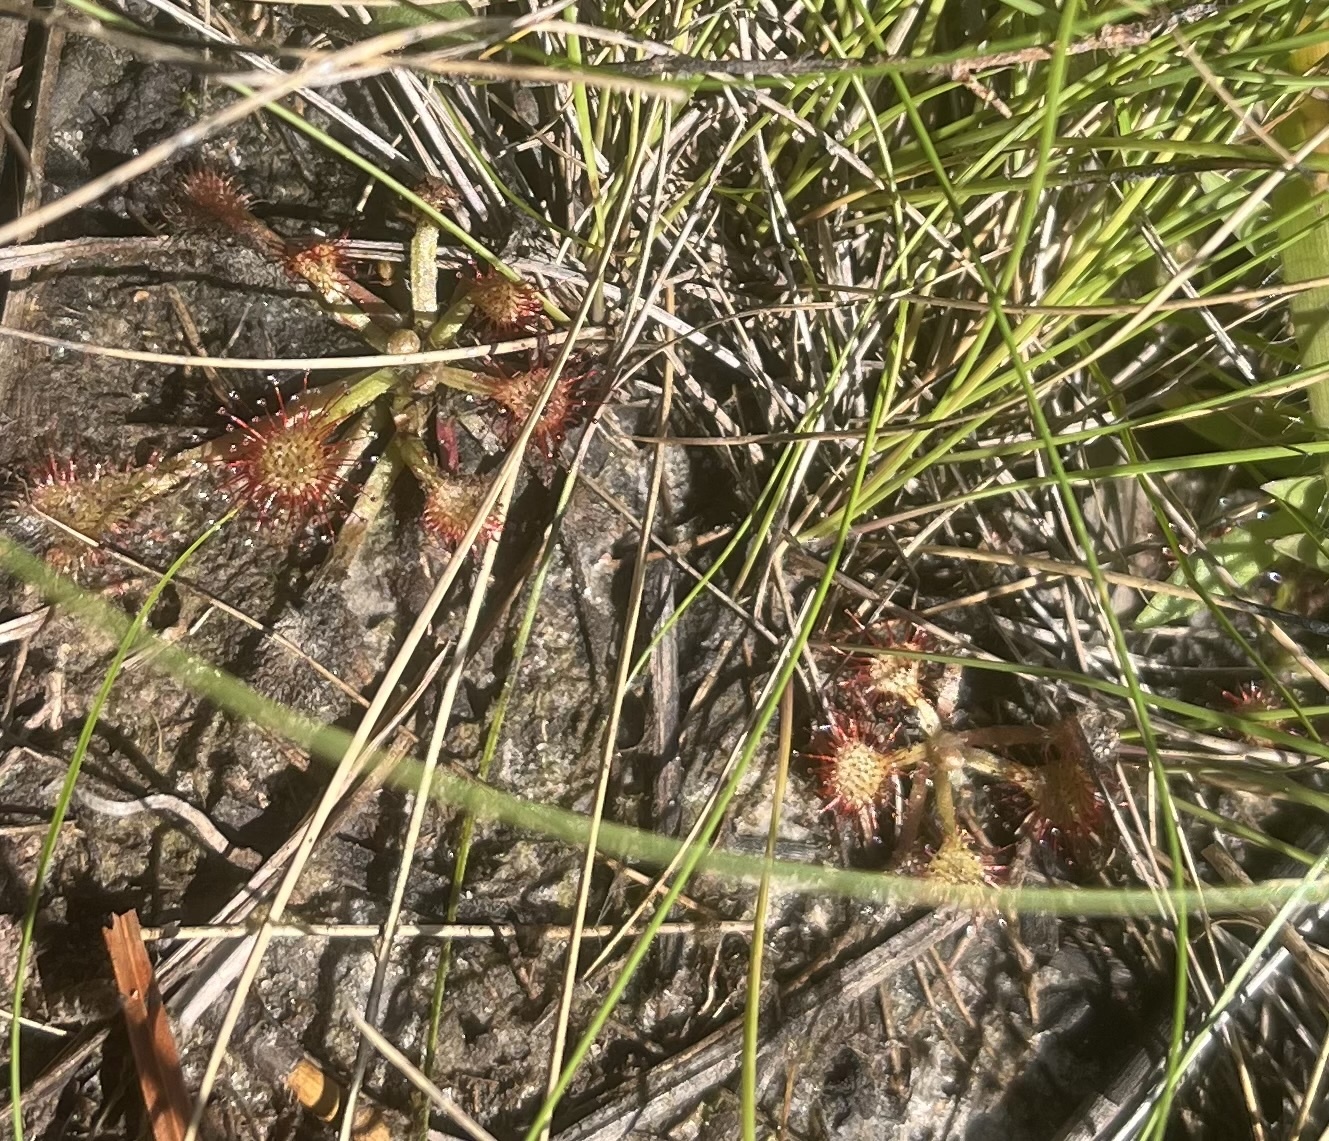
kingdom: Plantae
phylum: Tracheophyta
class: Magnoliopsida
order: Caryophyllales
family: Droseraceae
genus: Drosera
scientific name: Drosera capillaris
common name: Pink sundew
